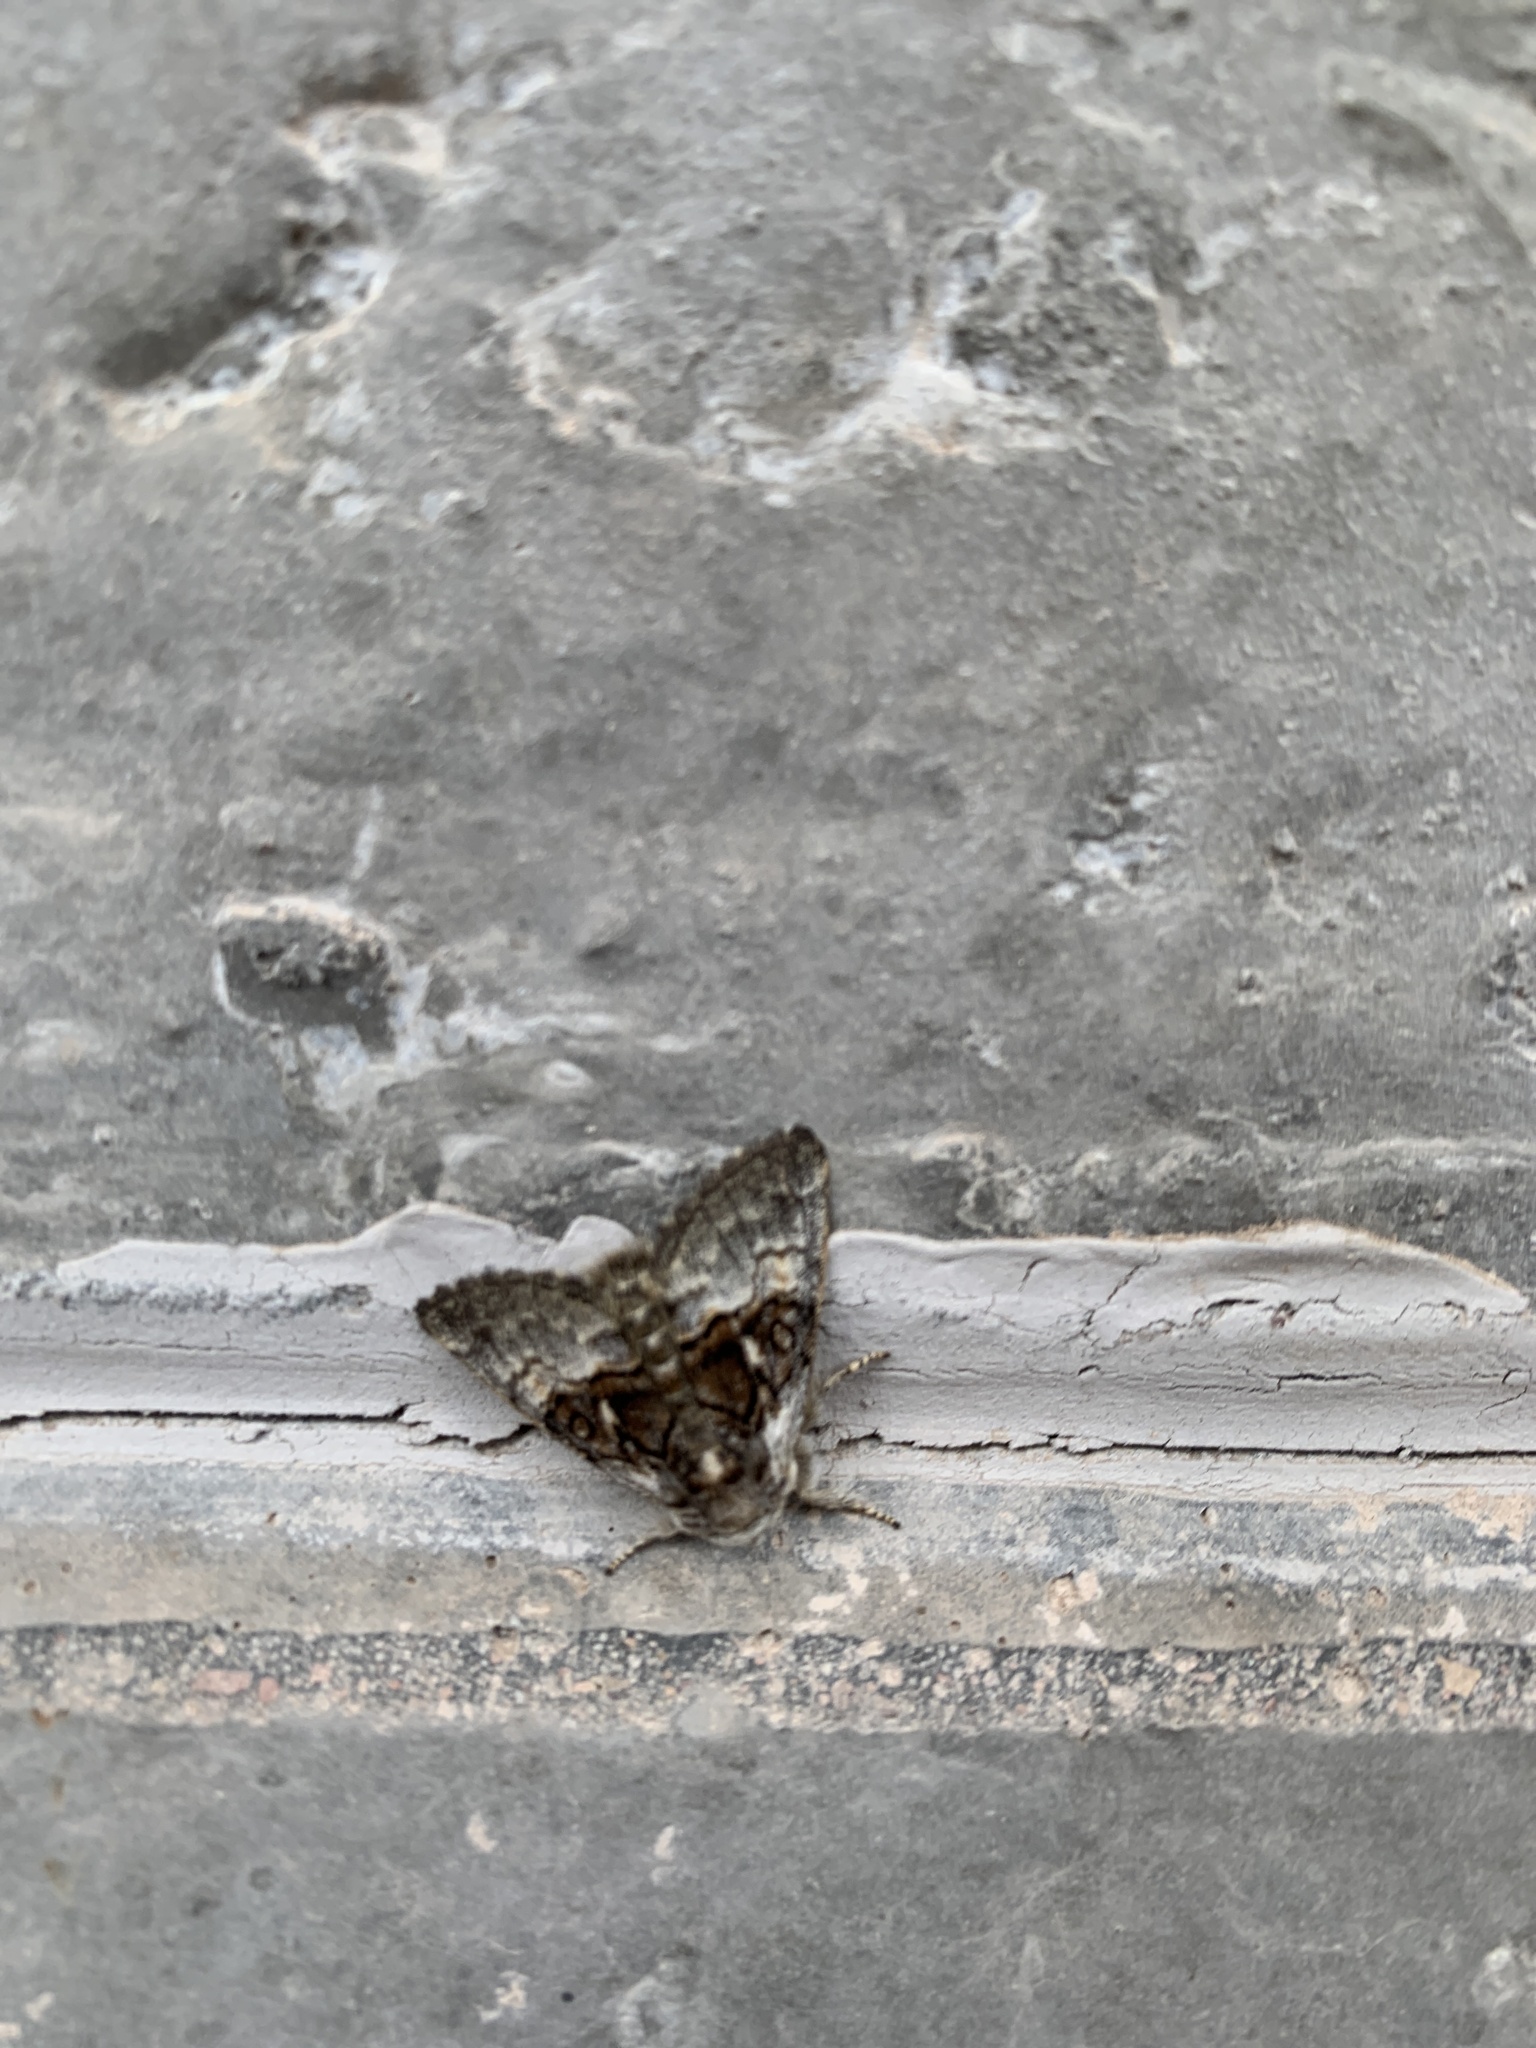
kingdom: Animalia
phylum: Arthropoda
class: Insecta
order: Lepidoptera
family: Noctuidae
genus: Colocasia
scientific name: Colocasia coryli
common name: Nut-tree tussock
